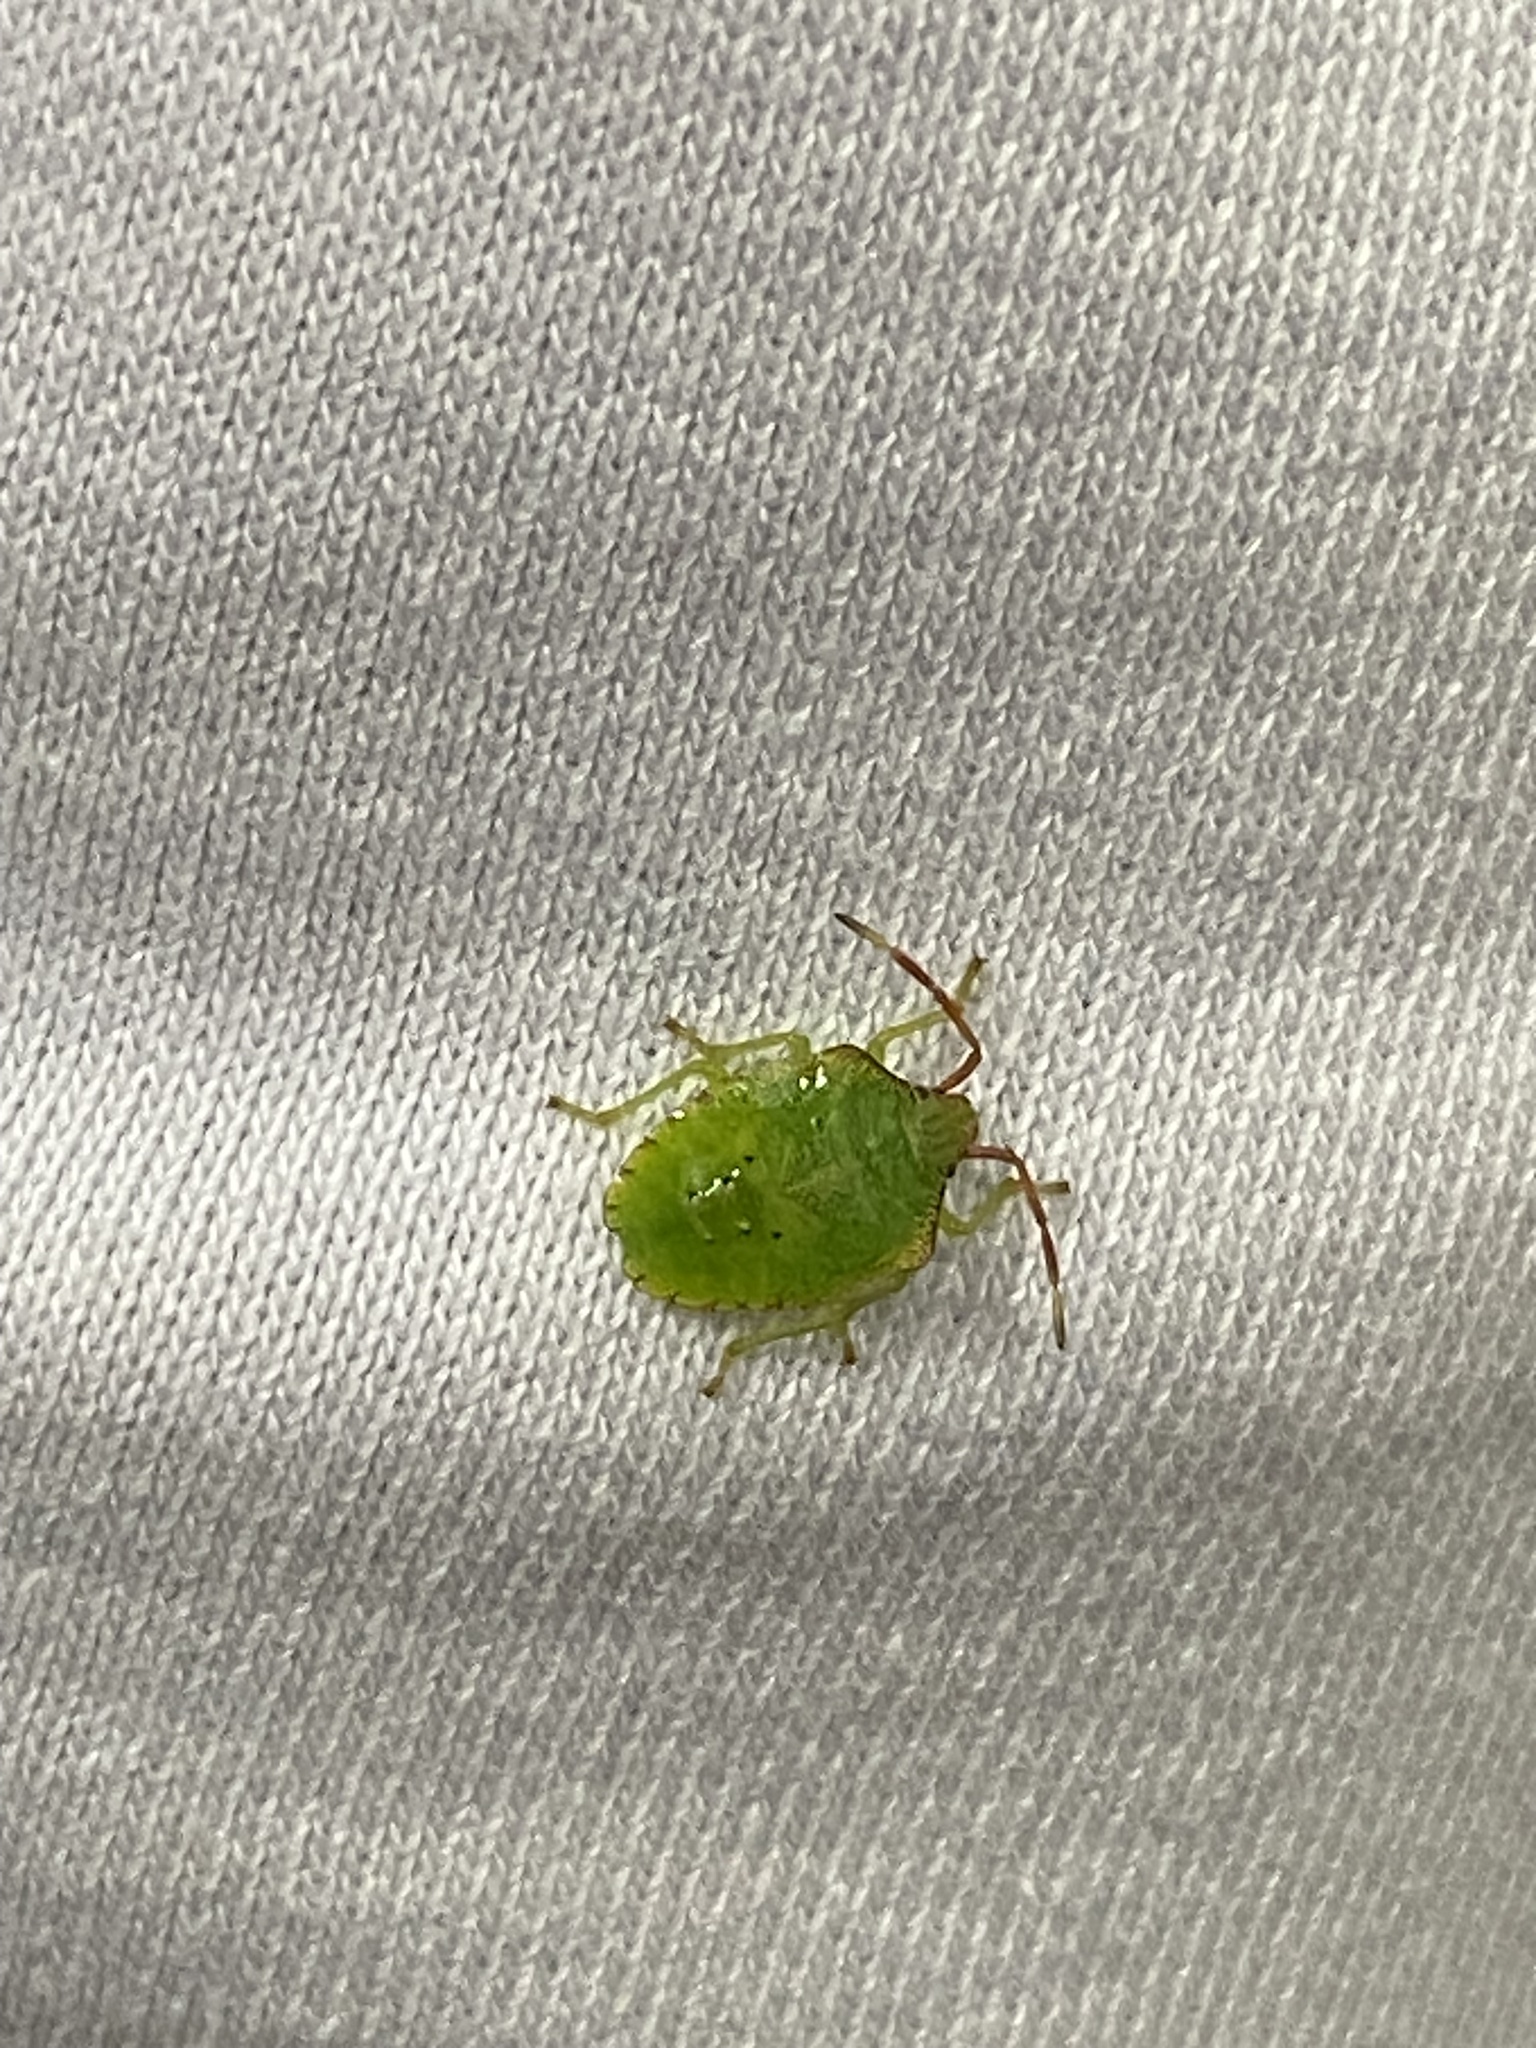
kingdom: Animalia
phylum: Arthropoda
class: Insecta
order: Hemiptera
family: Acanthosomatidae
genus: Acanthosoma
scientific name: Acanthosoma haemorrhoidale
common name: Hawthorn shieldbug
